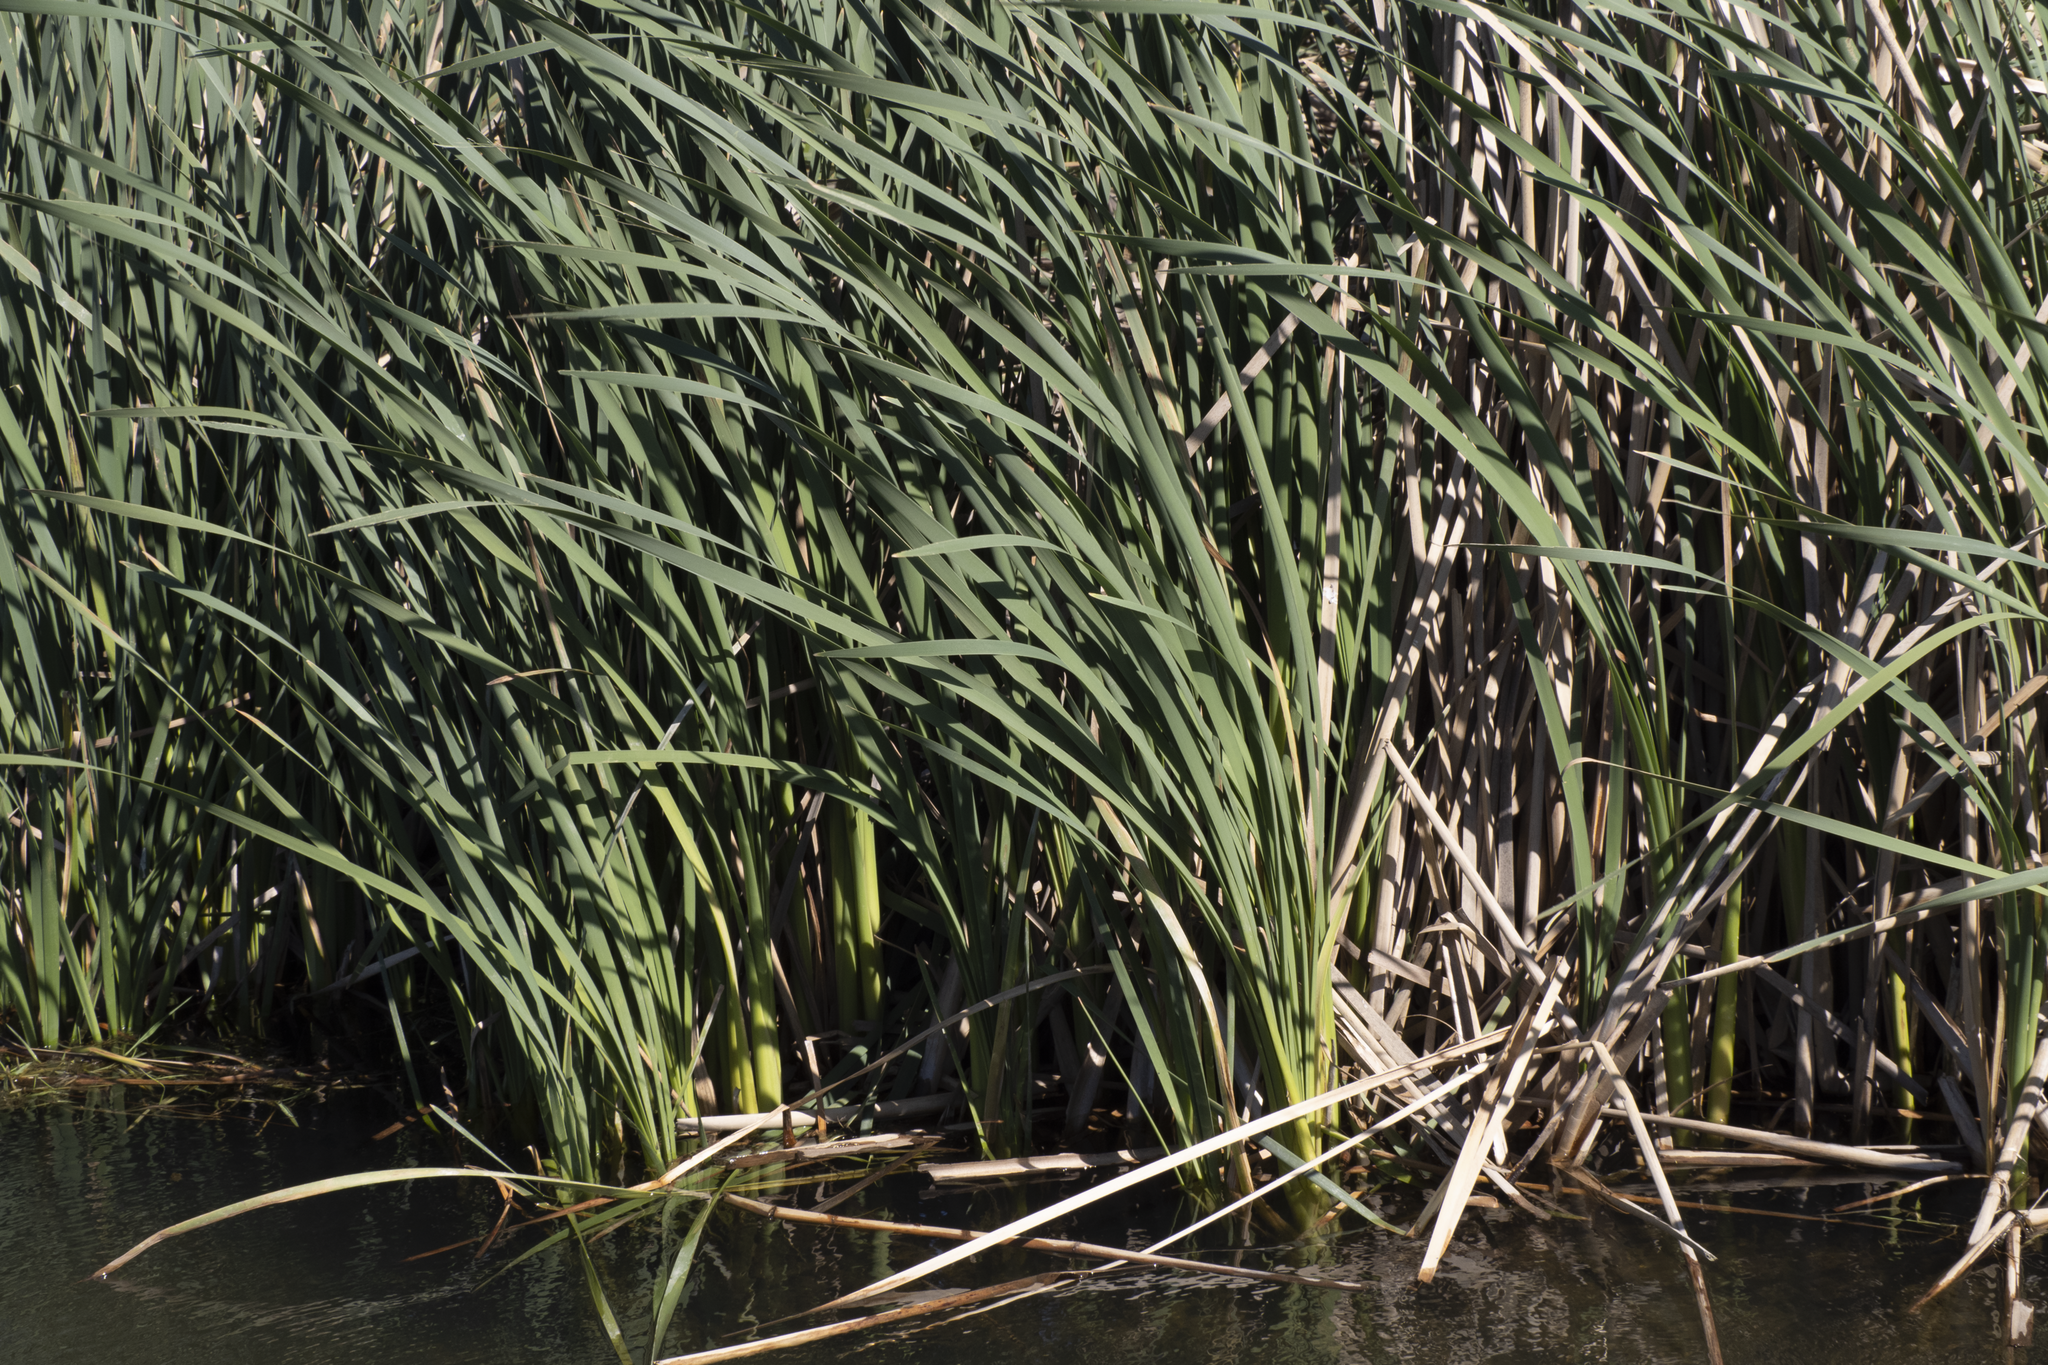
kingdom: Plantae
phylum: Tracheophyta
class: Liliopsida
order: Poales
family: Typhaceae
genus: Typha
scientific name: Typha orientalis
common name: Bullrush
